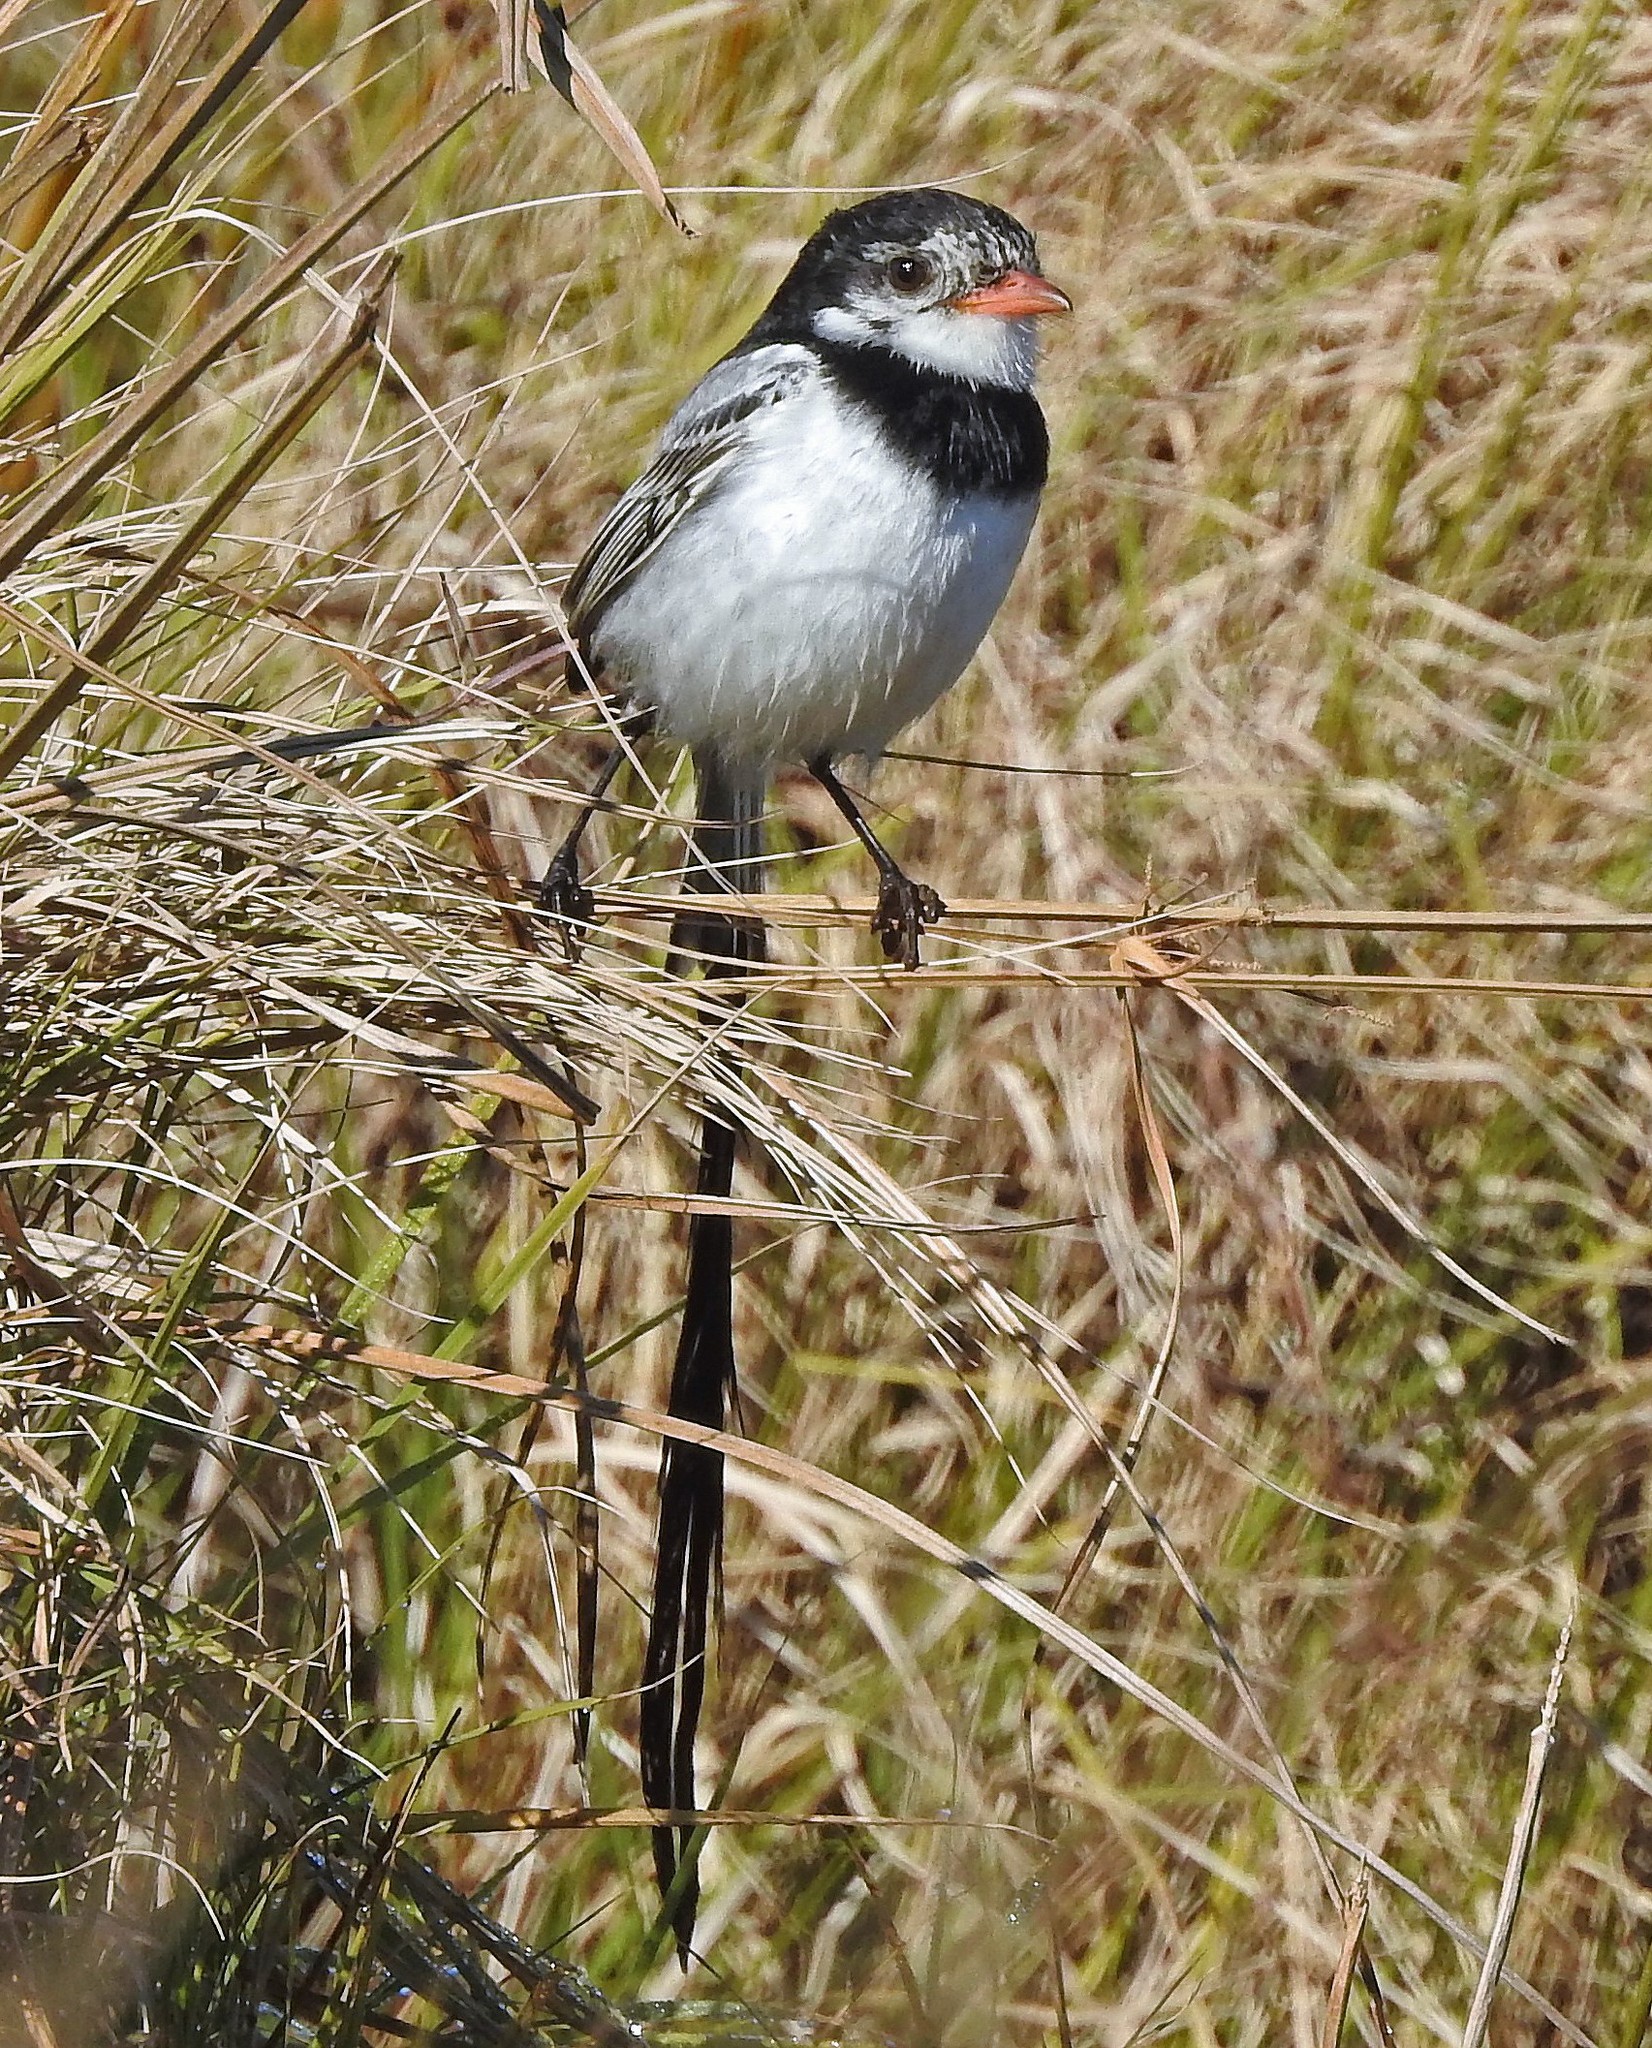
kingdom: Animalia
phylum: Chordata
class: Aves
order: Passeriformes
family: Tyrannidae
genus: Alectrurus
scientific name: Alectrurus risora
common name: Strange-tailed tyrant
